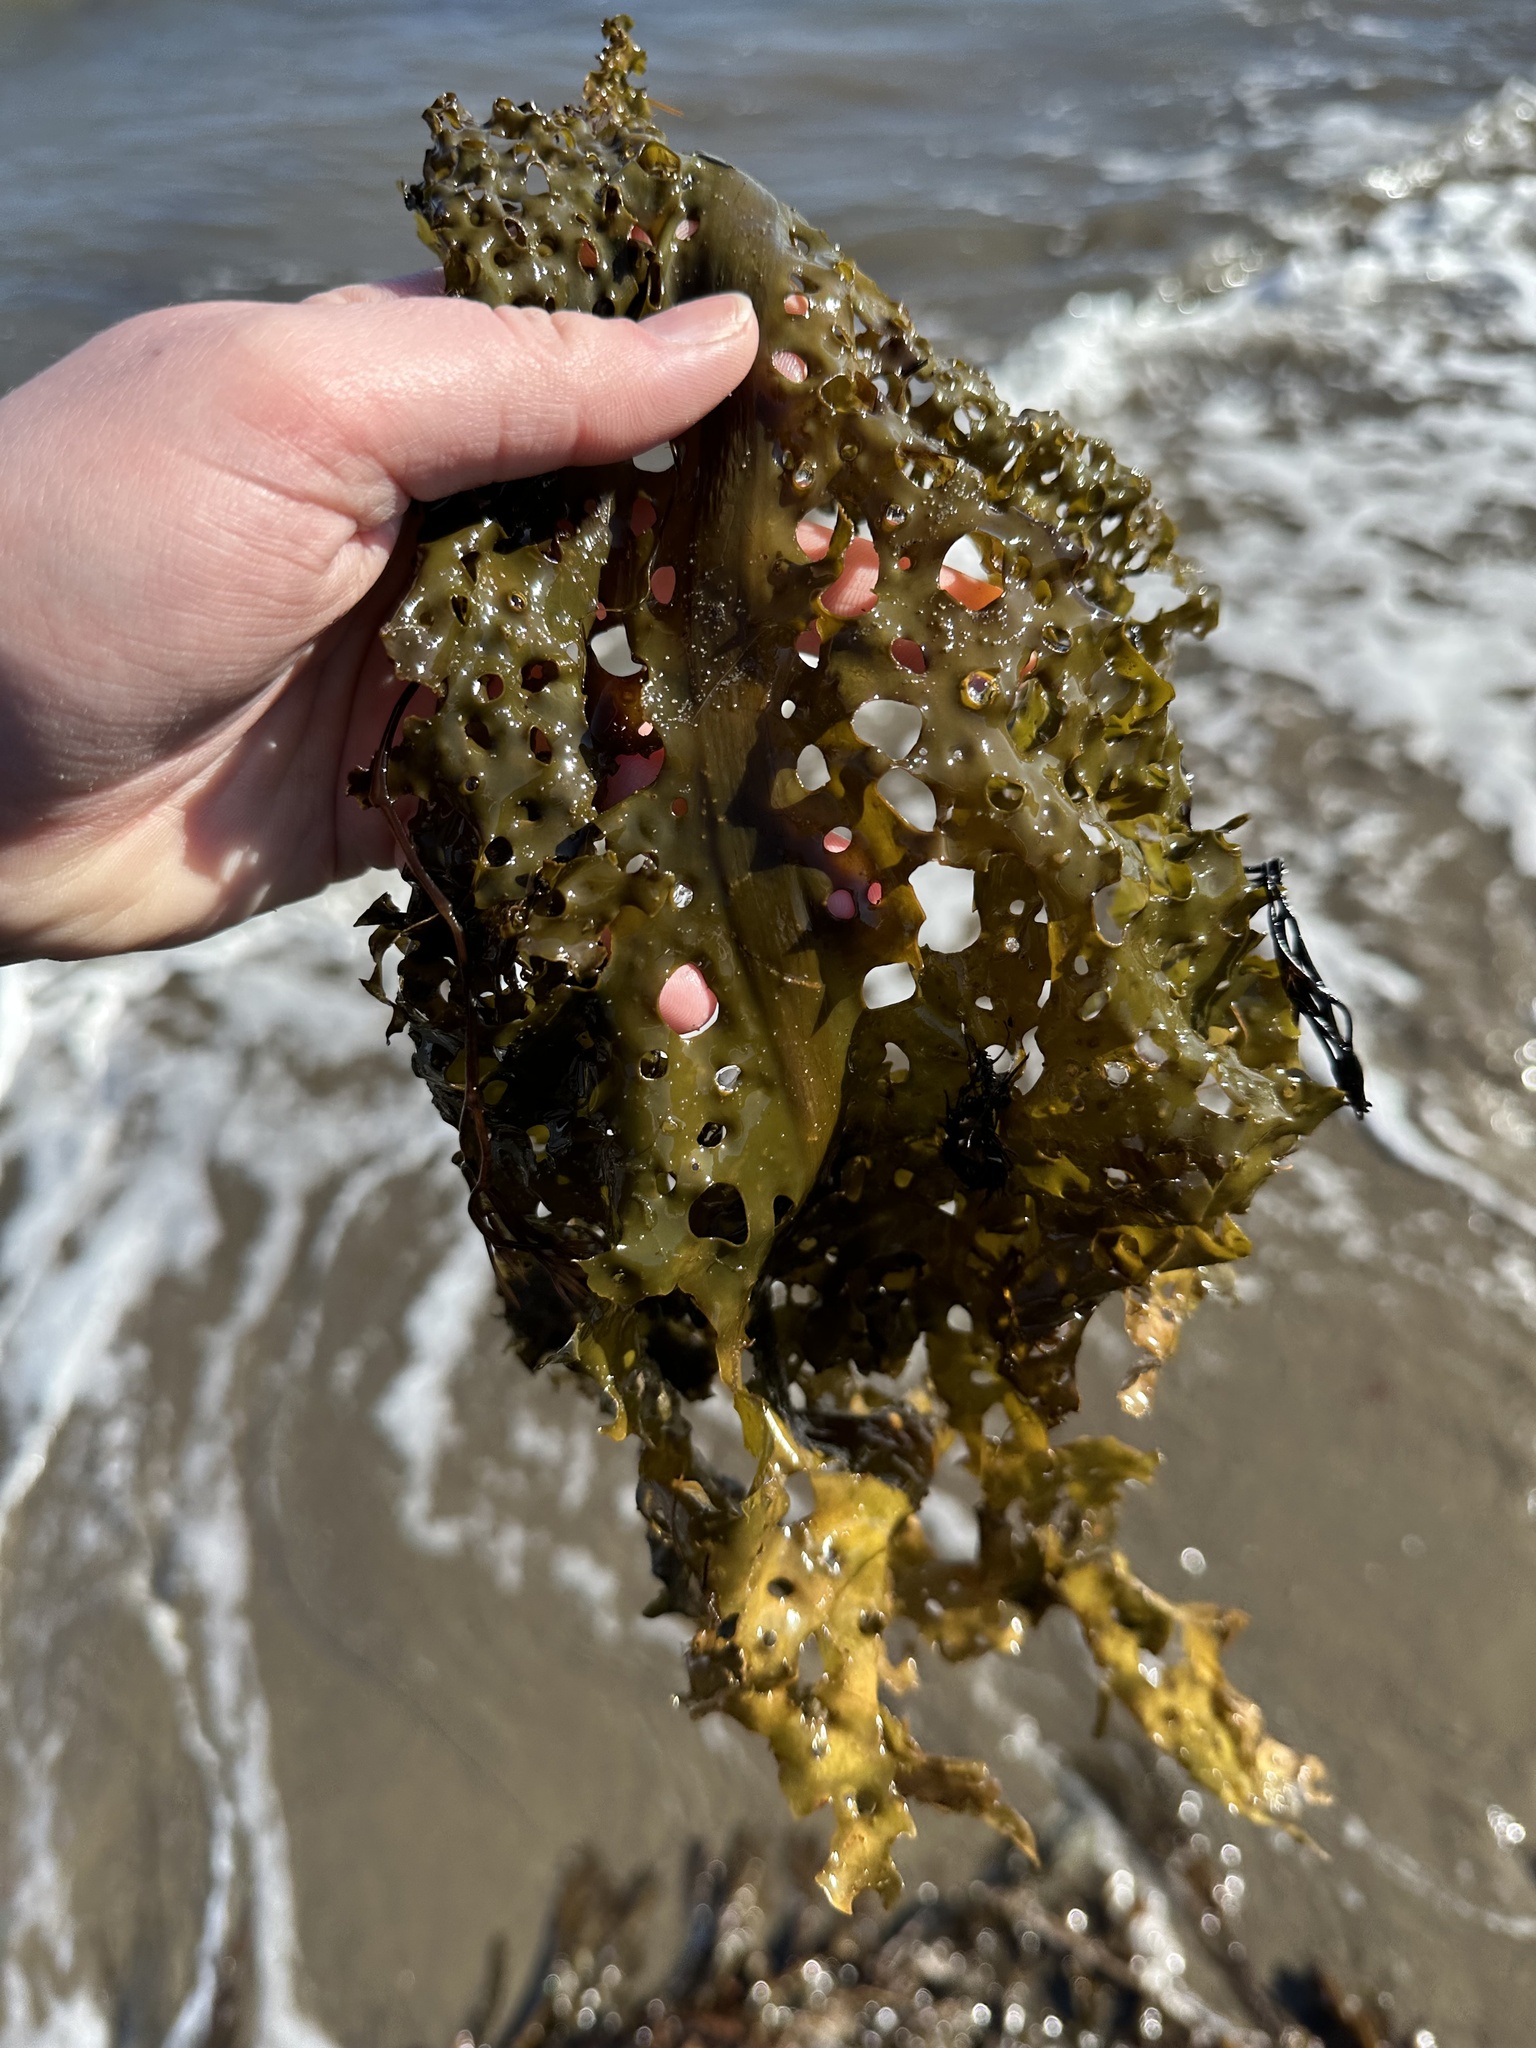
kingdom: Chromista
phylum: Ochrophyta
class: Phaeophyceae
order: Laminariales
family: Costariaceae
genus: Agarum
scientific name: Agarum clathratum
